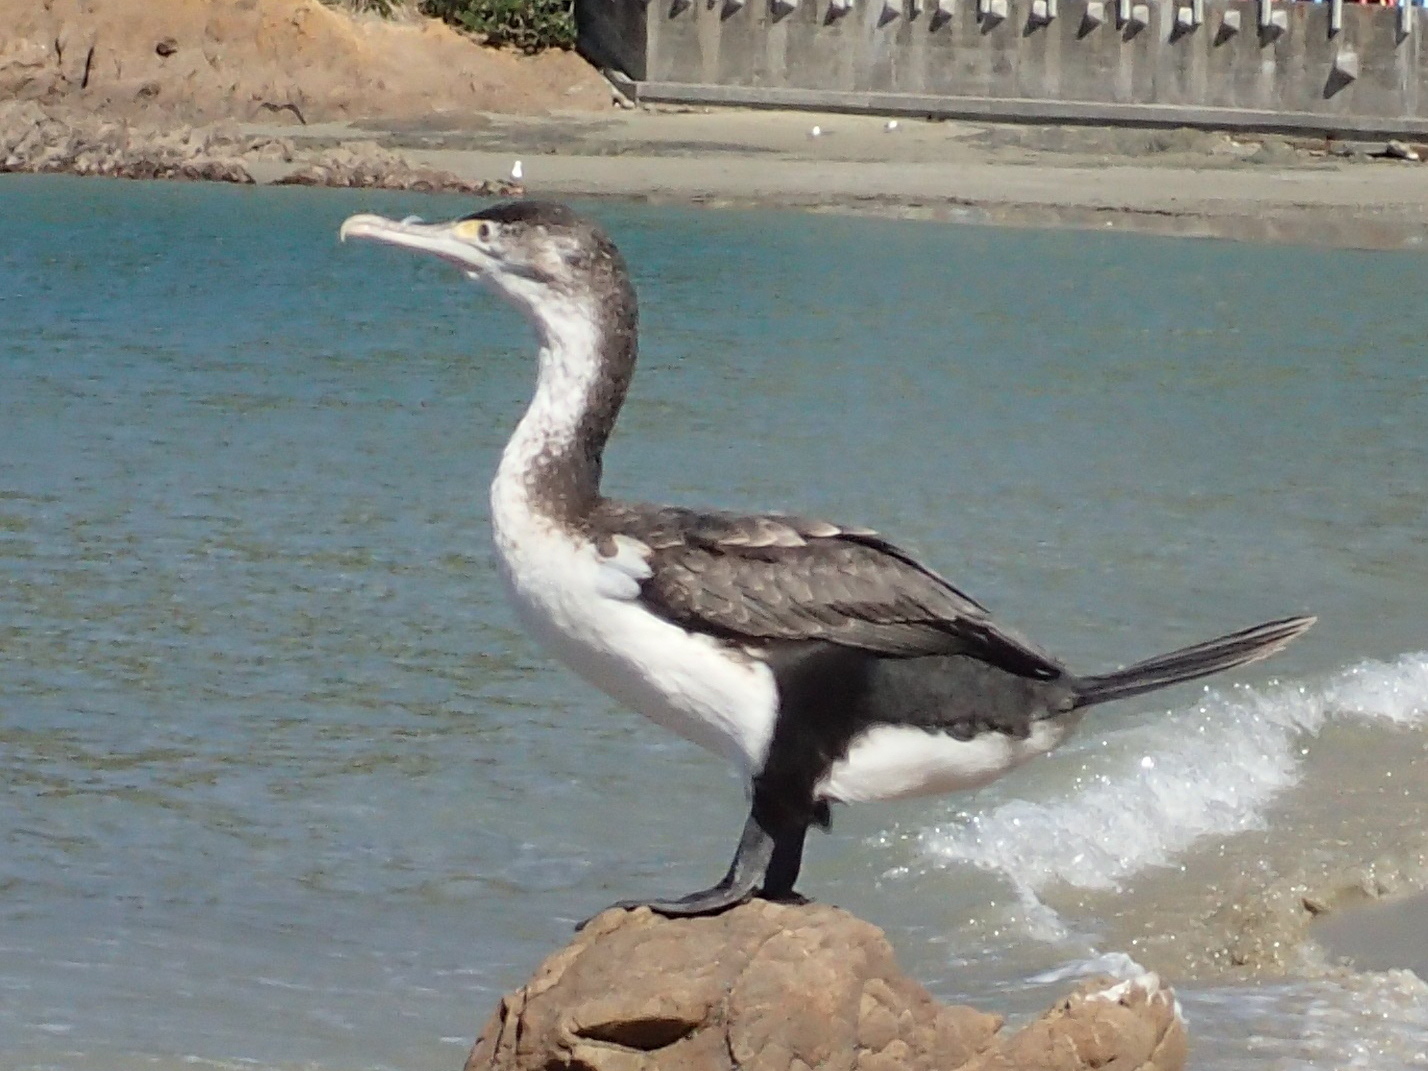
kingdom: Animalia
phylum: Chordata
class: Aves
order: Suliformes
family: Phalacrocoracidae
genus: Phalacrocorax
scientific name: Phalacrocorax varius
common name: Pied cormorant
